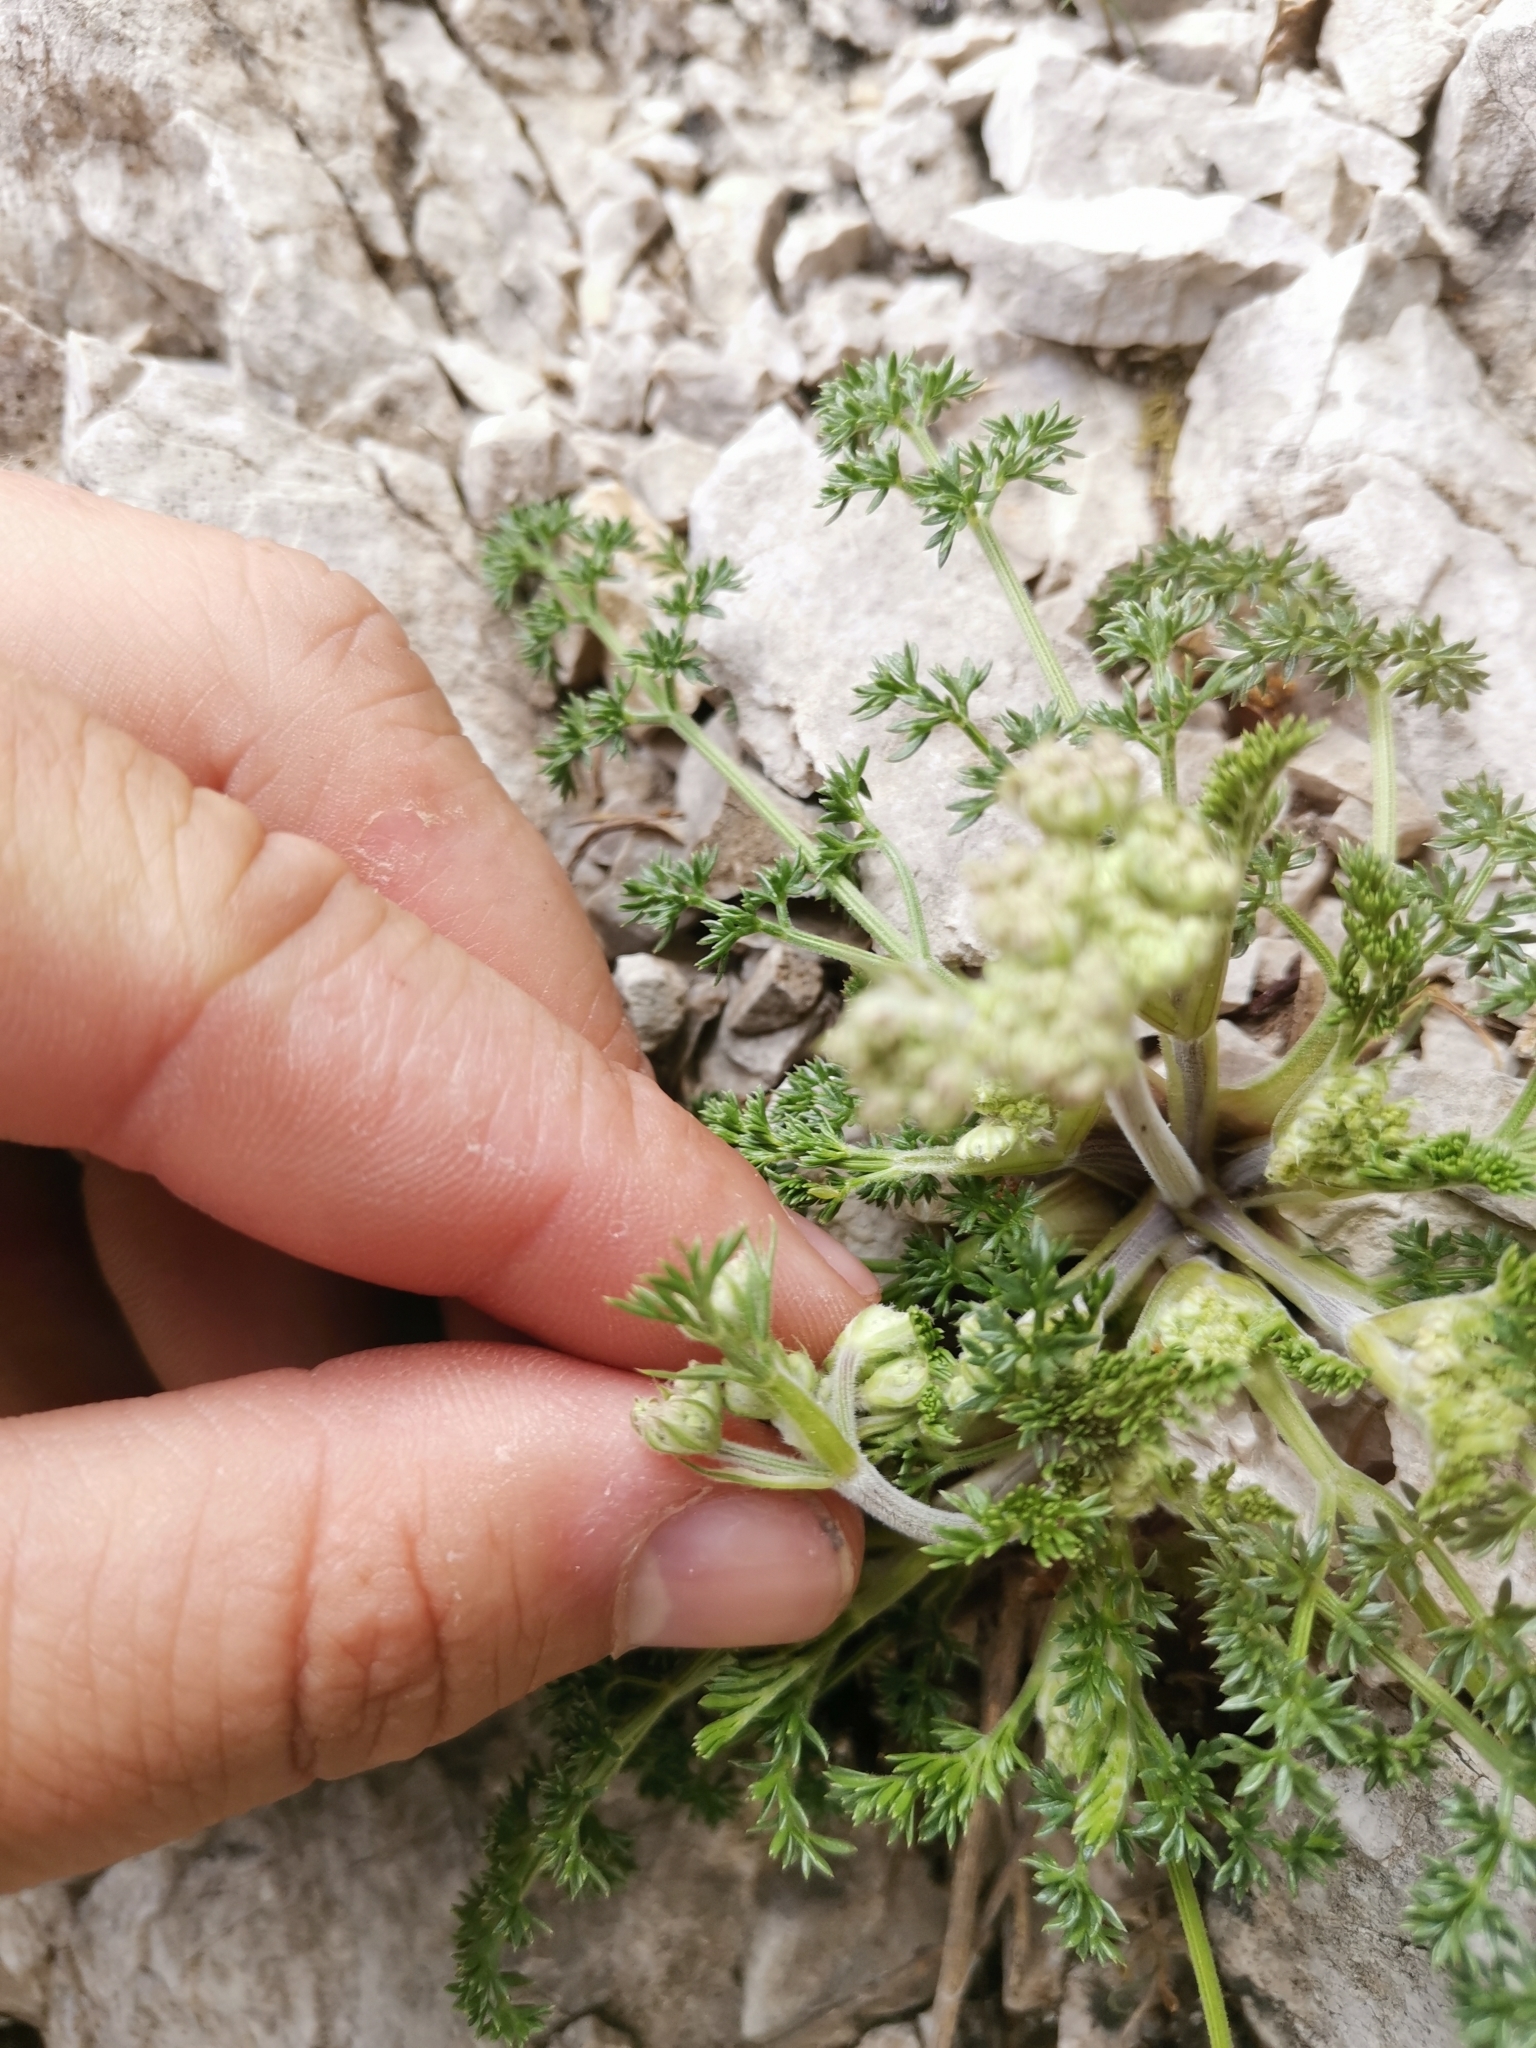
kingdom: Plantae
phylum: Tracheophyta
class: Magnoliopsida
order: Apiales
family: Apiaceae
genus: Athamanta
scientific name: Athamanta cretensis
